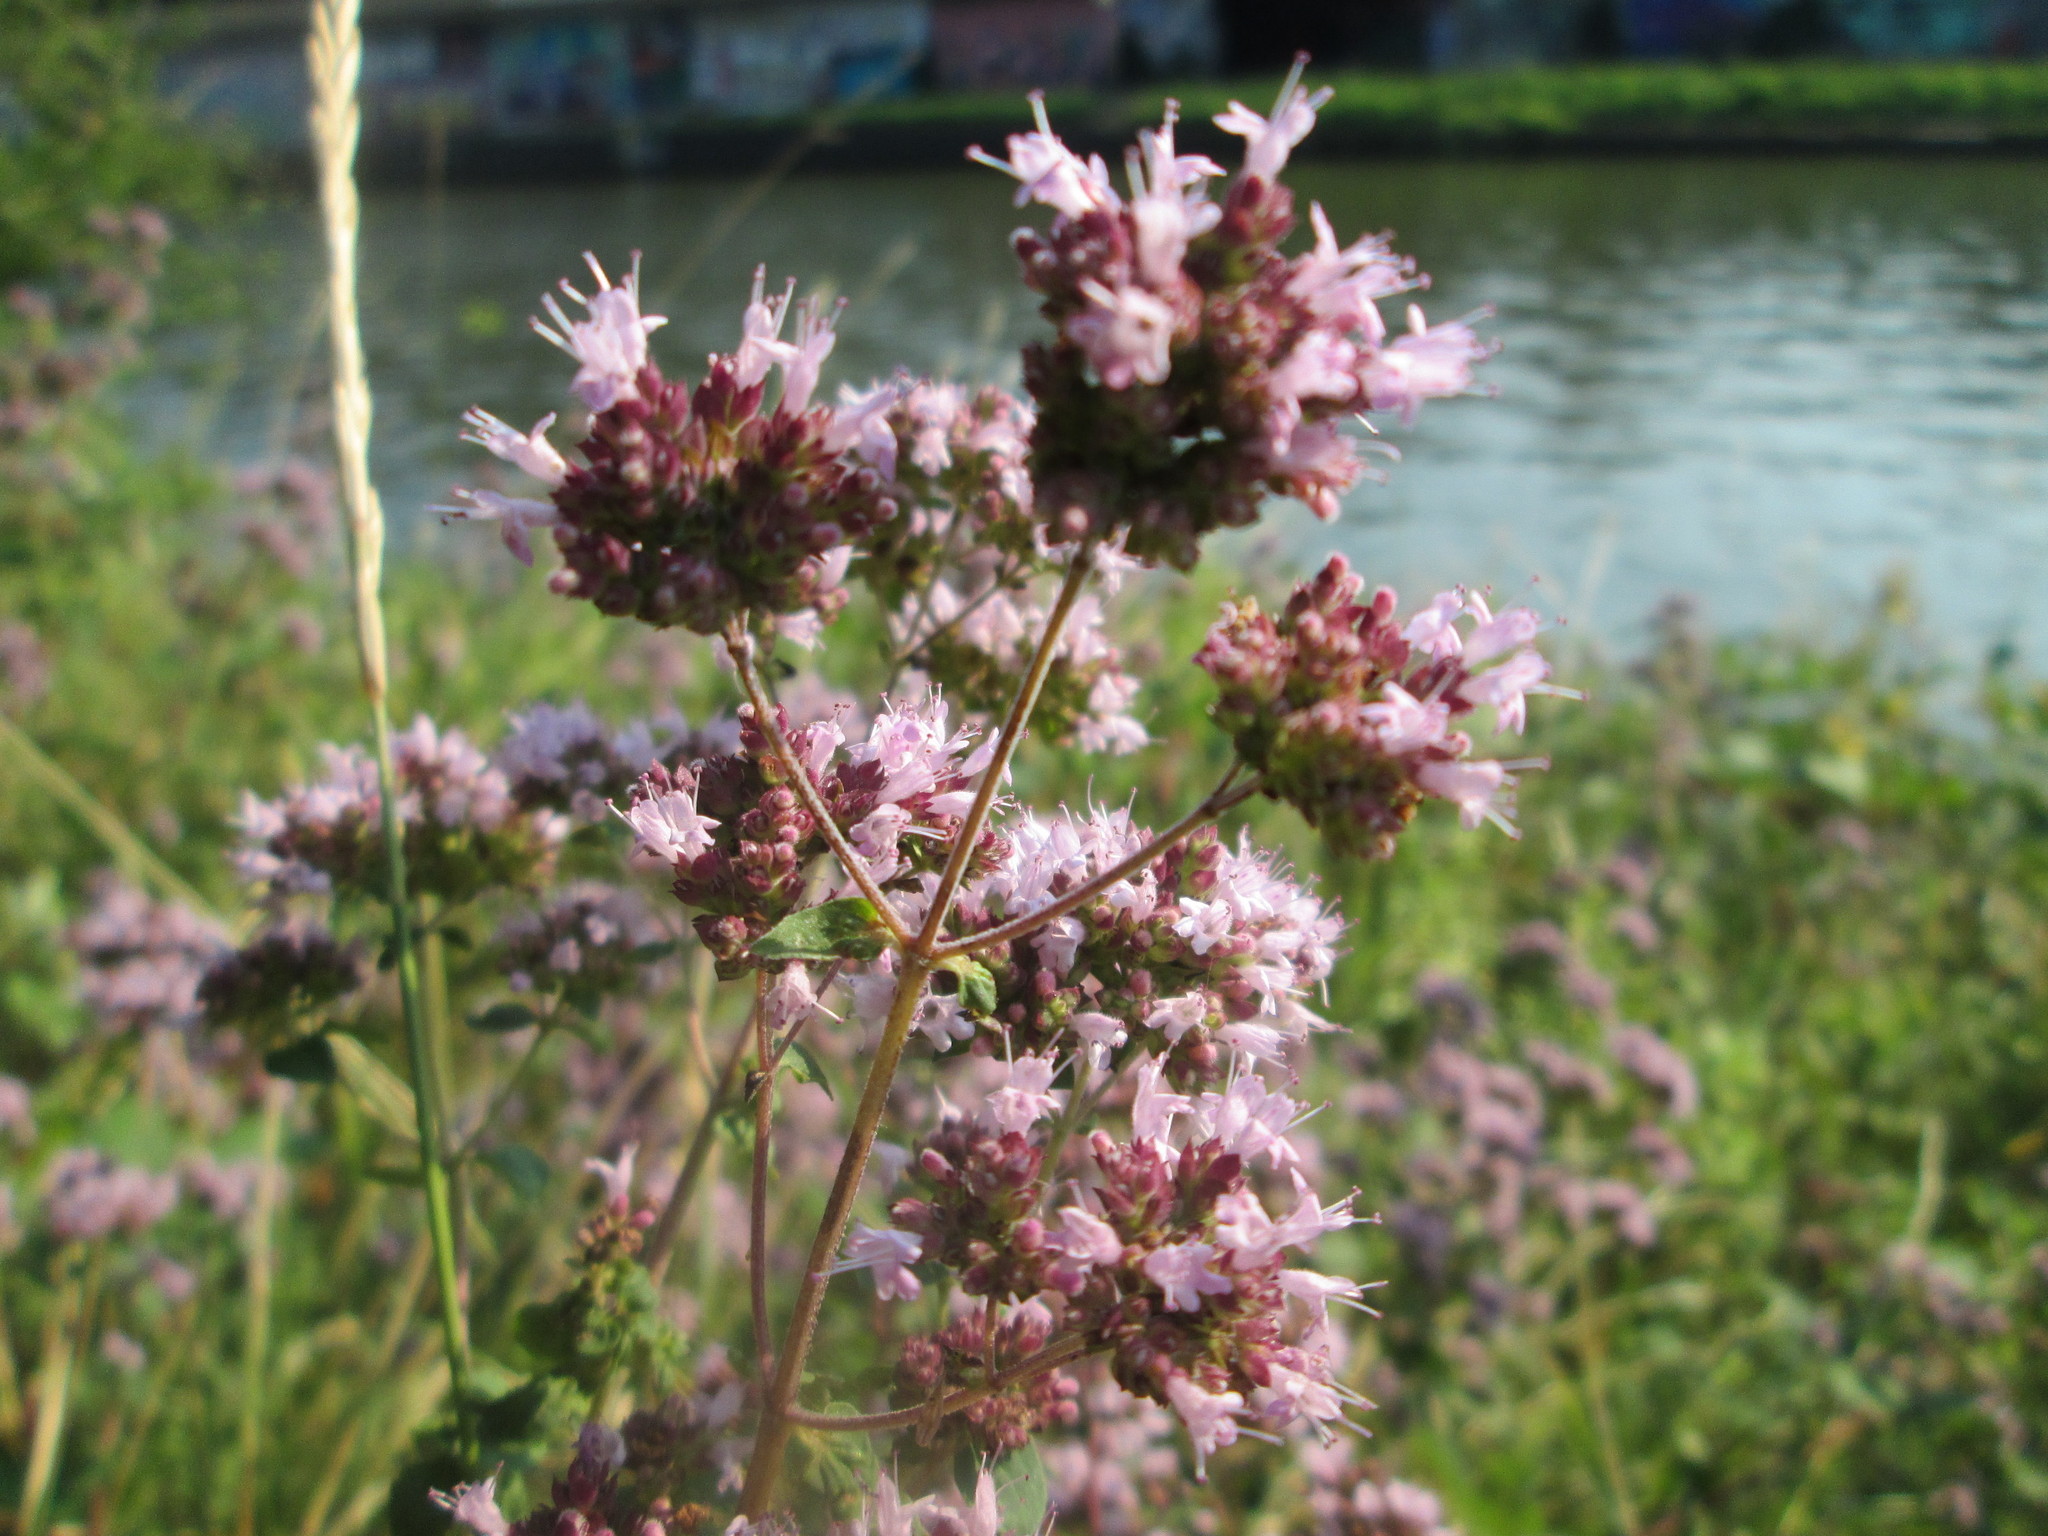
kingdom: Plantae
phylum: Tracheophyta
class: Magnoliopsida
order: Lamiales
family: Lamiaceae
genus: Origanum
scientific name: Origanum vulgare
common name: Wild marjoram
